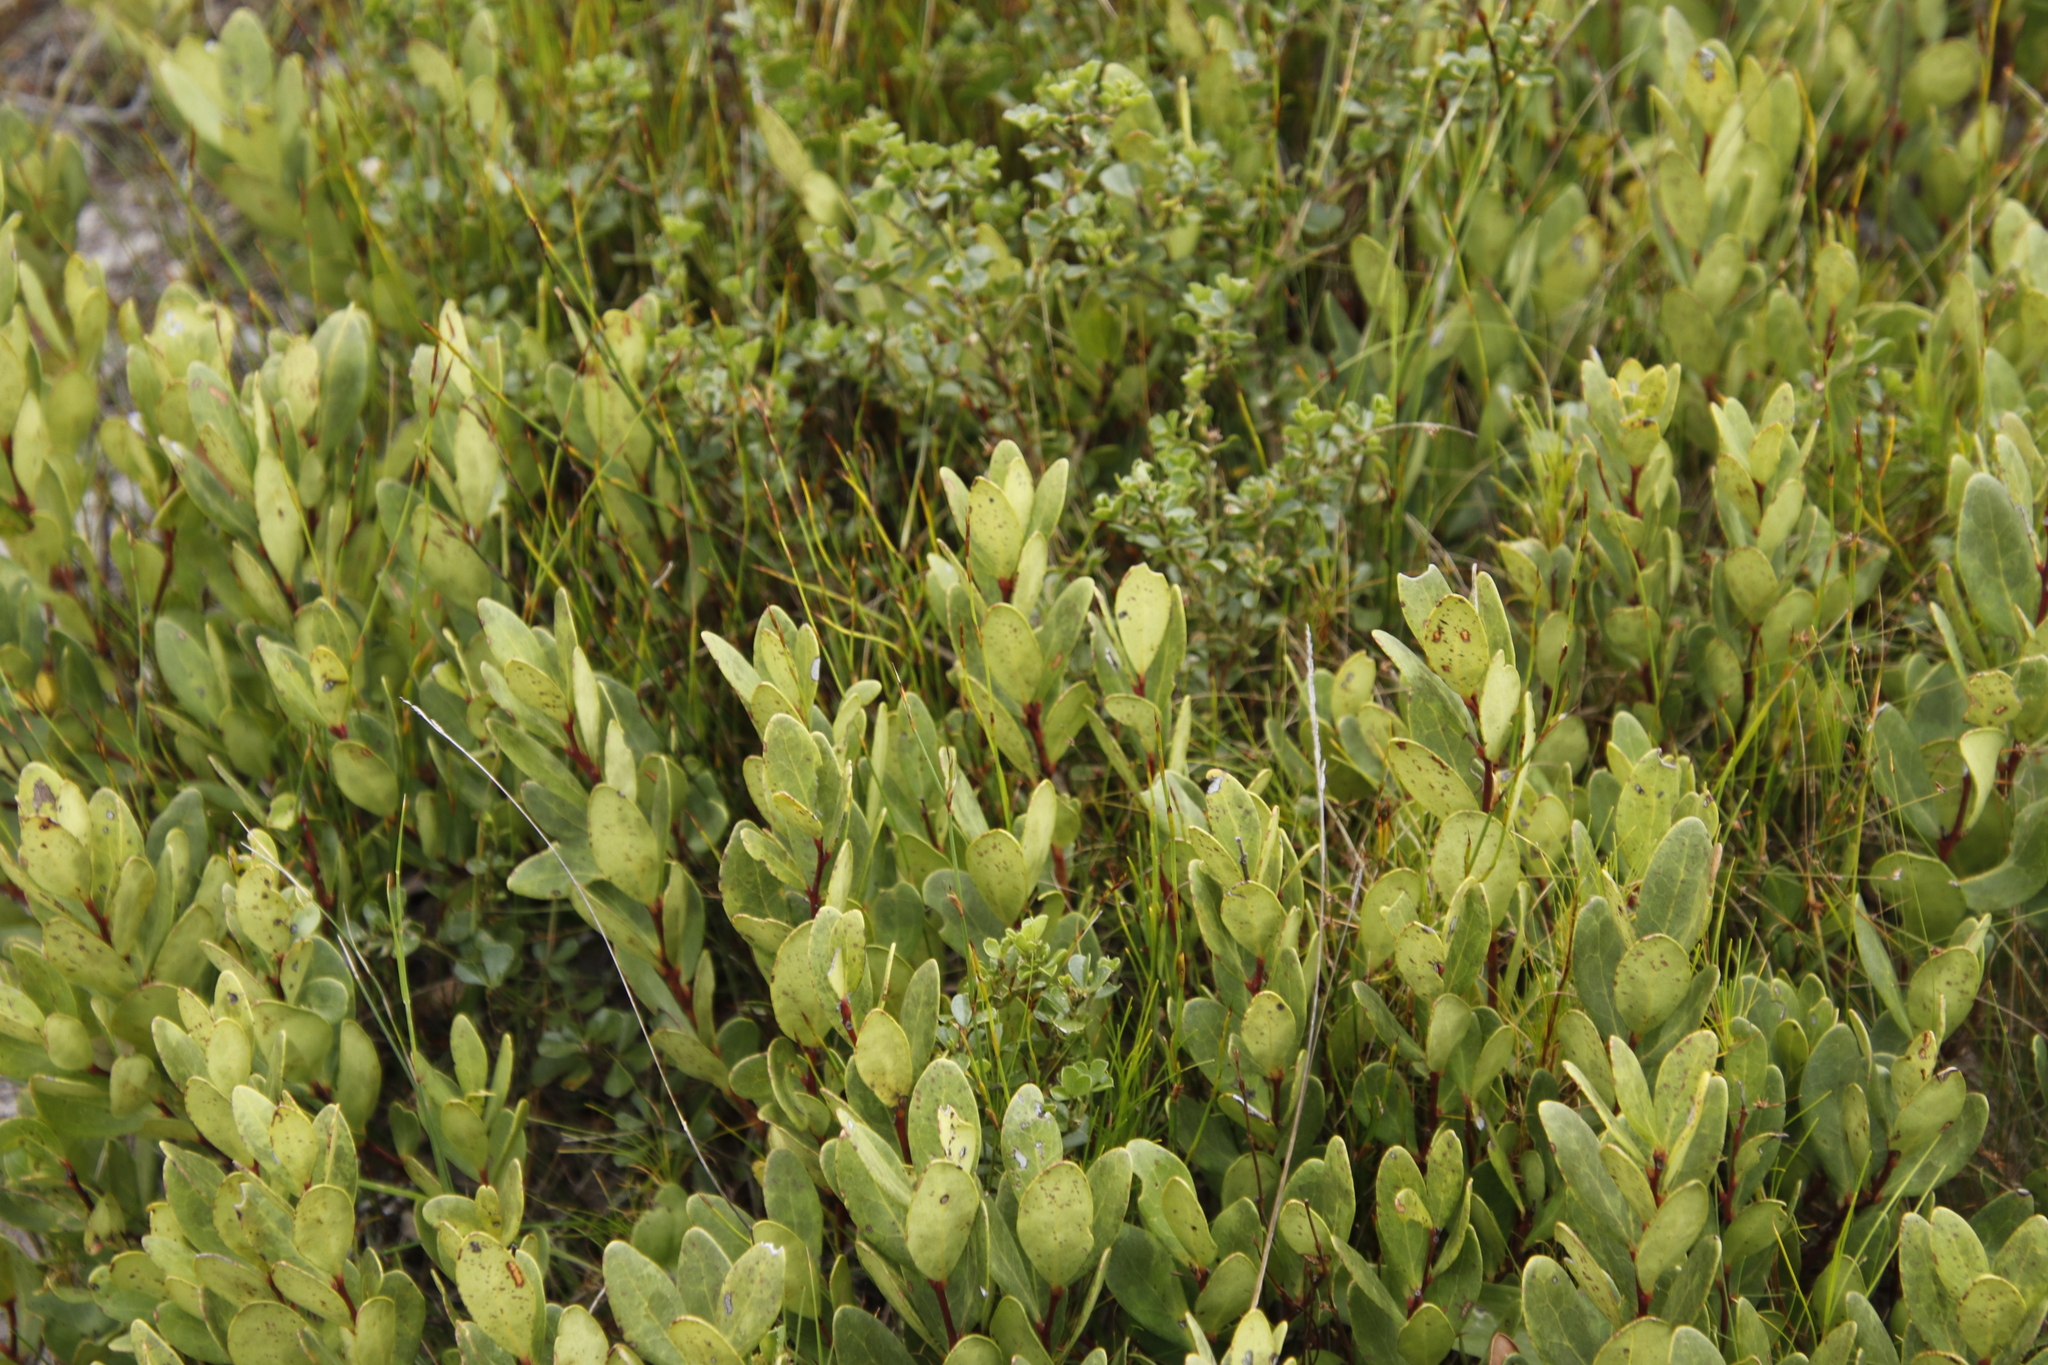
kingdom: Plantae
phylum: Tracheophyta
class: Magnoliopsida
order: Ericales
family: Ebenaceae
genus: Euclea
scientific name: Euclea racemosa
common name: Dune guarri
